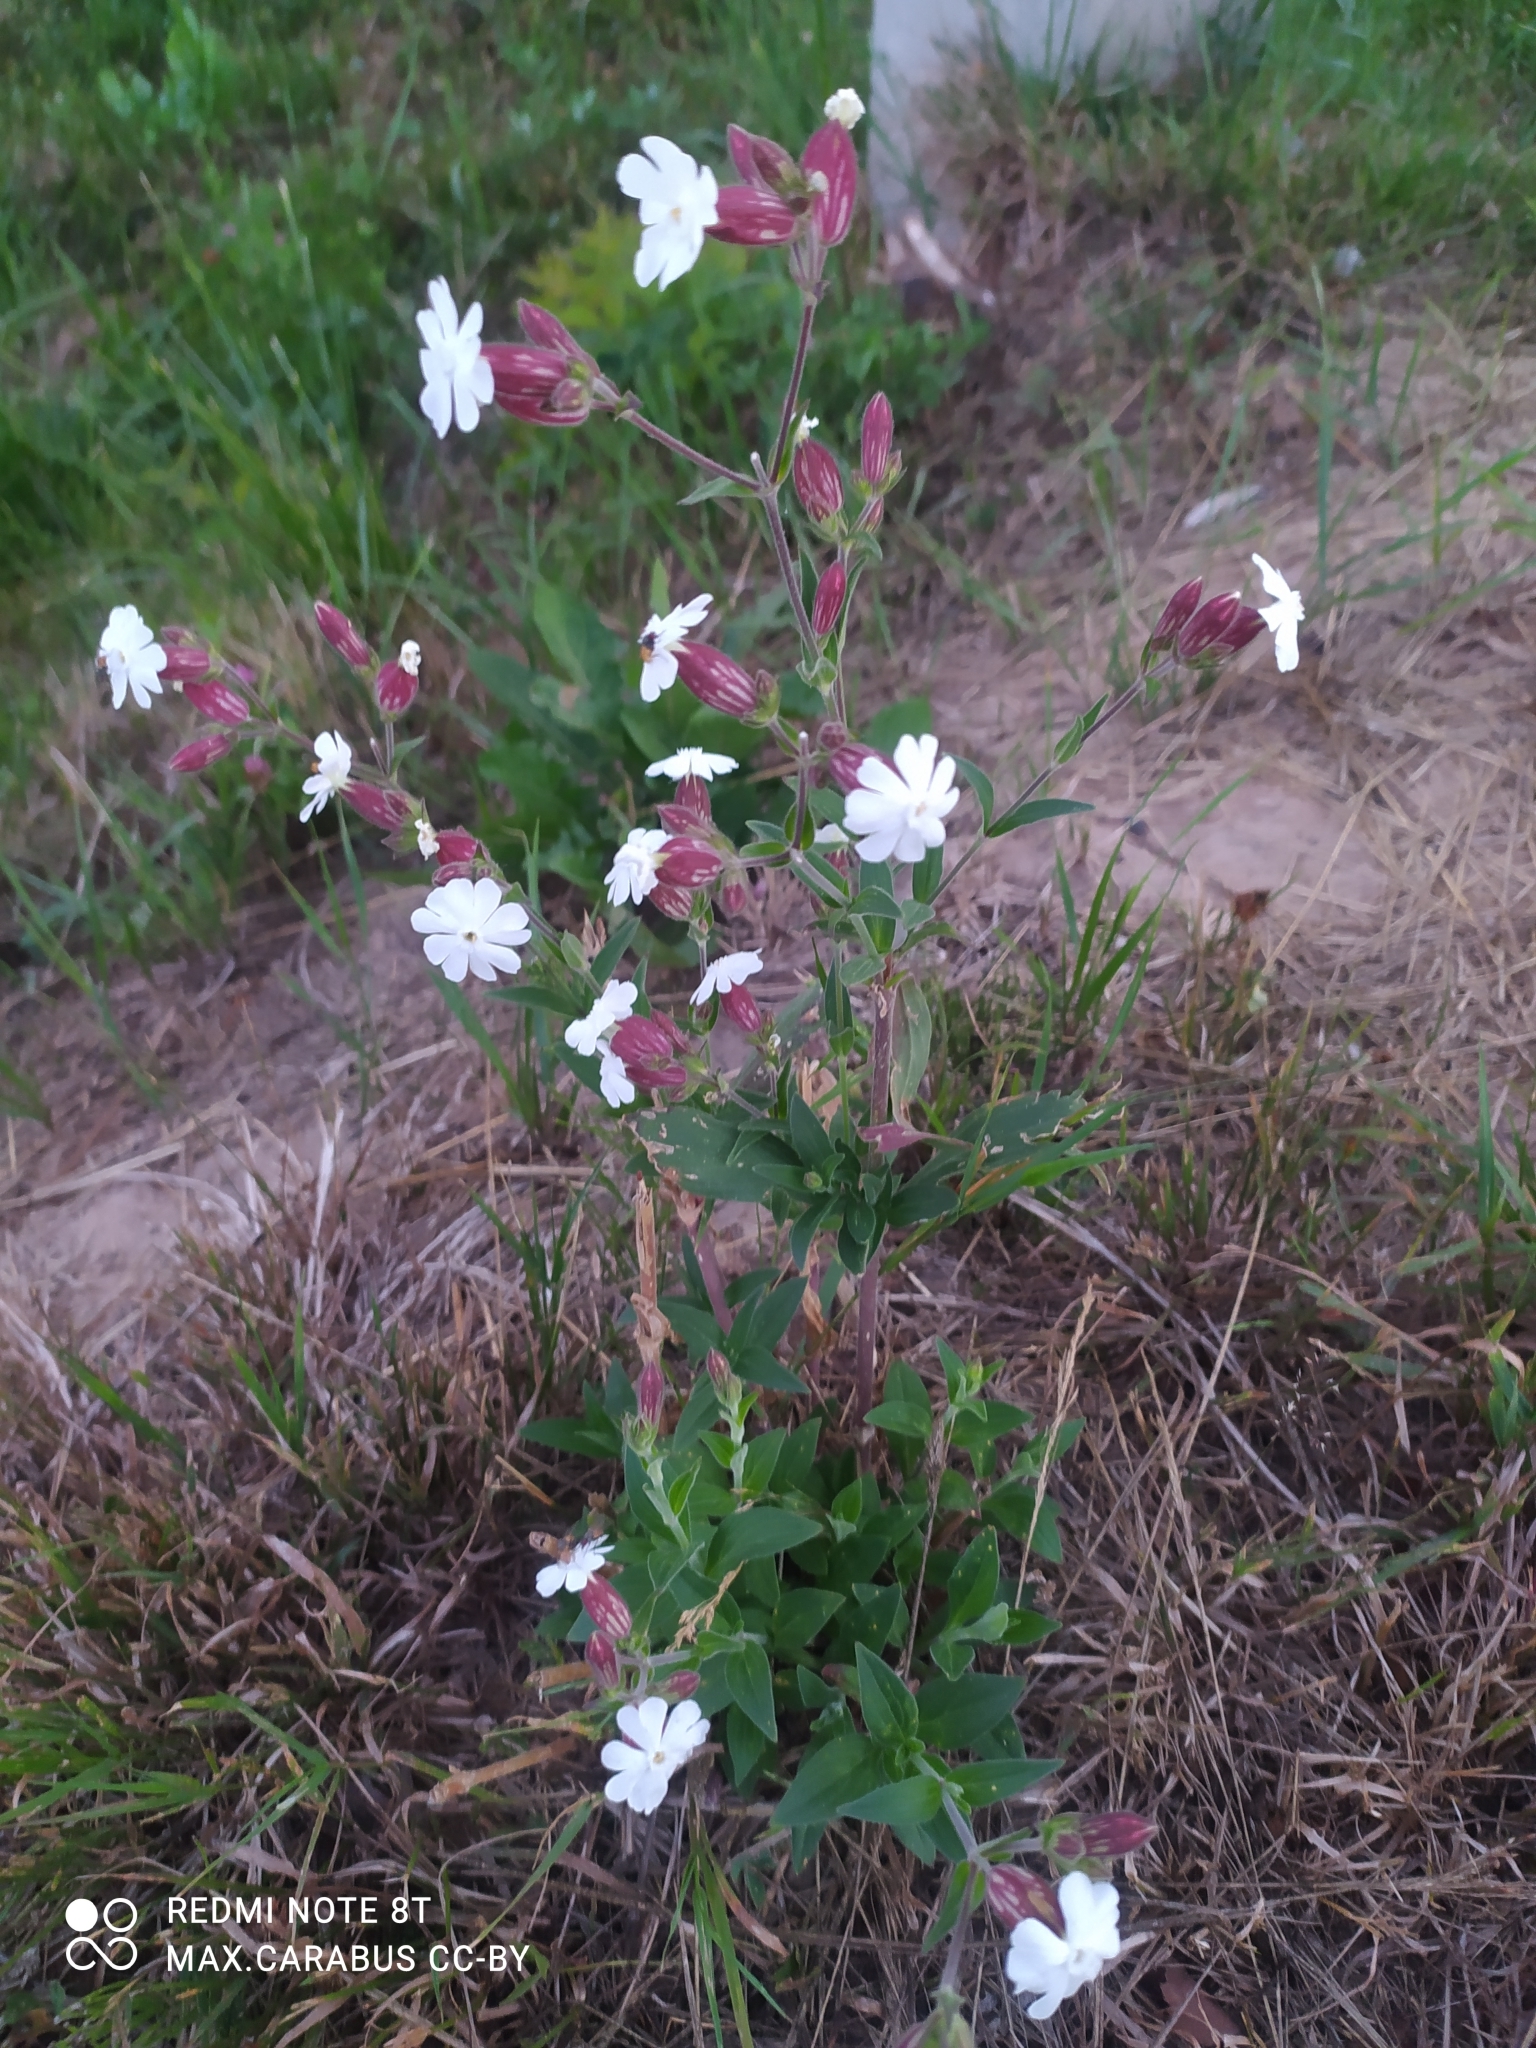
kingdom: Plantae
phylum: Tracheophyta
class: Magnoliopsida
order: Caryophyllales
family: Caryophyllaceae
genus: Silene
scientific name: Silene latifolia
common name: White campion
